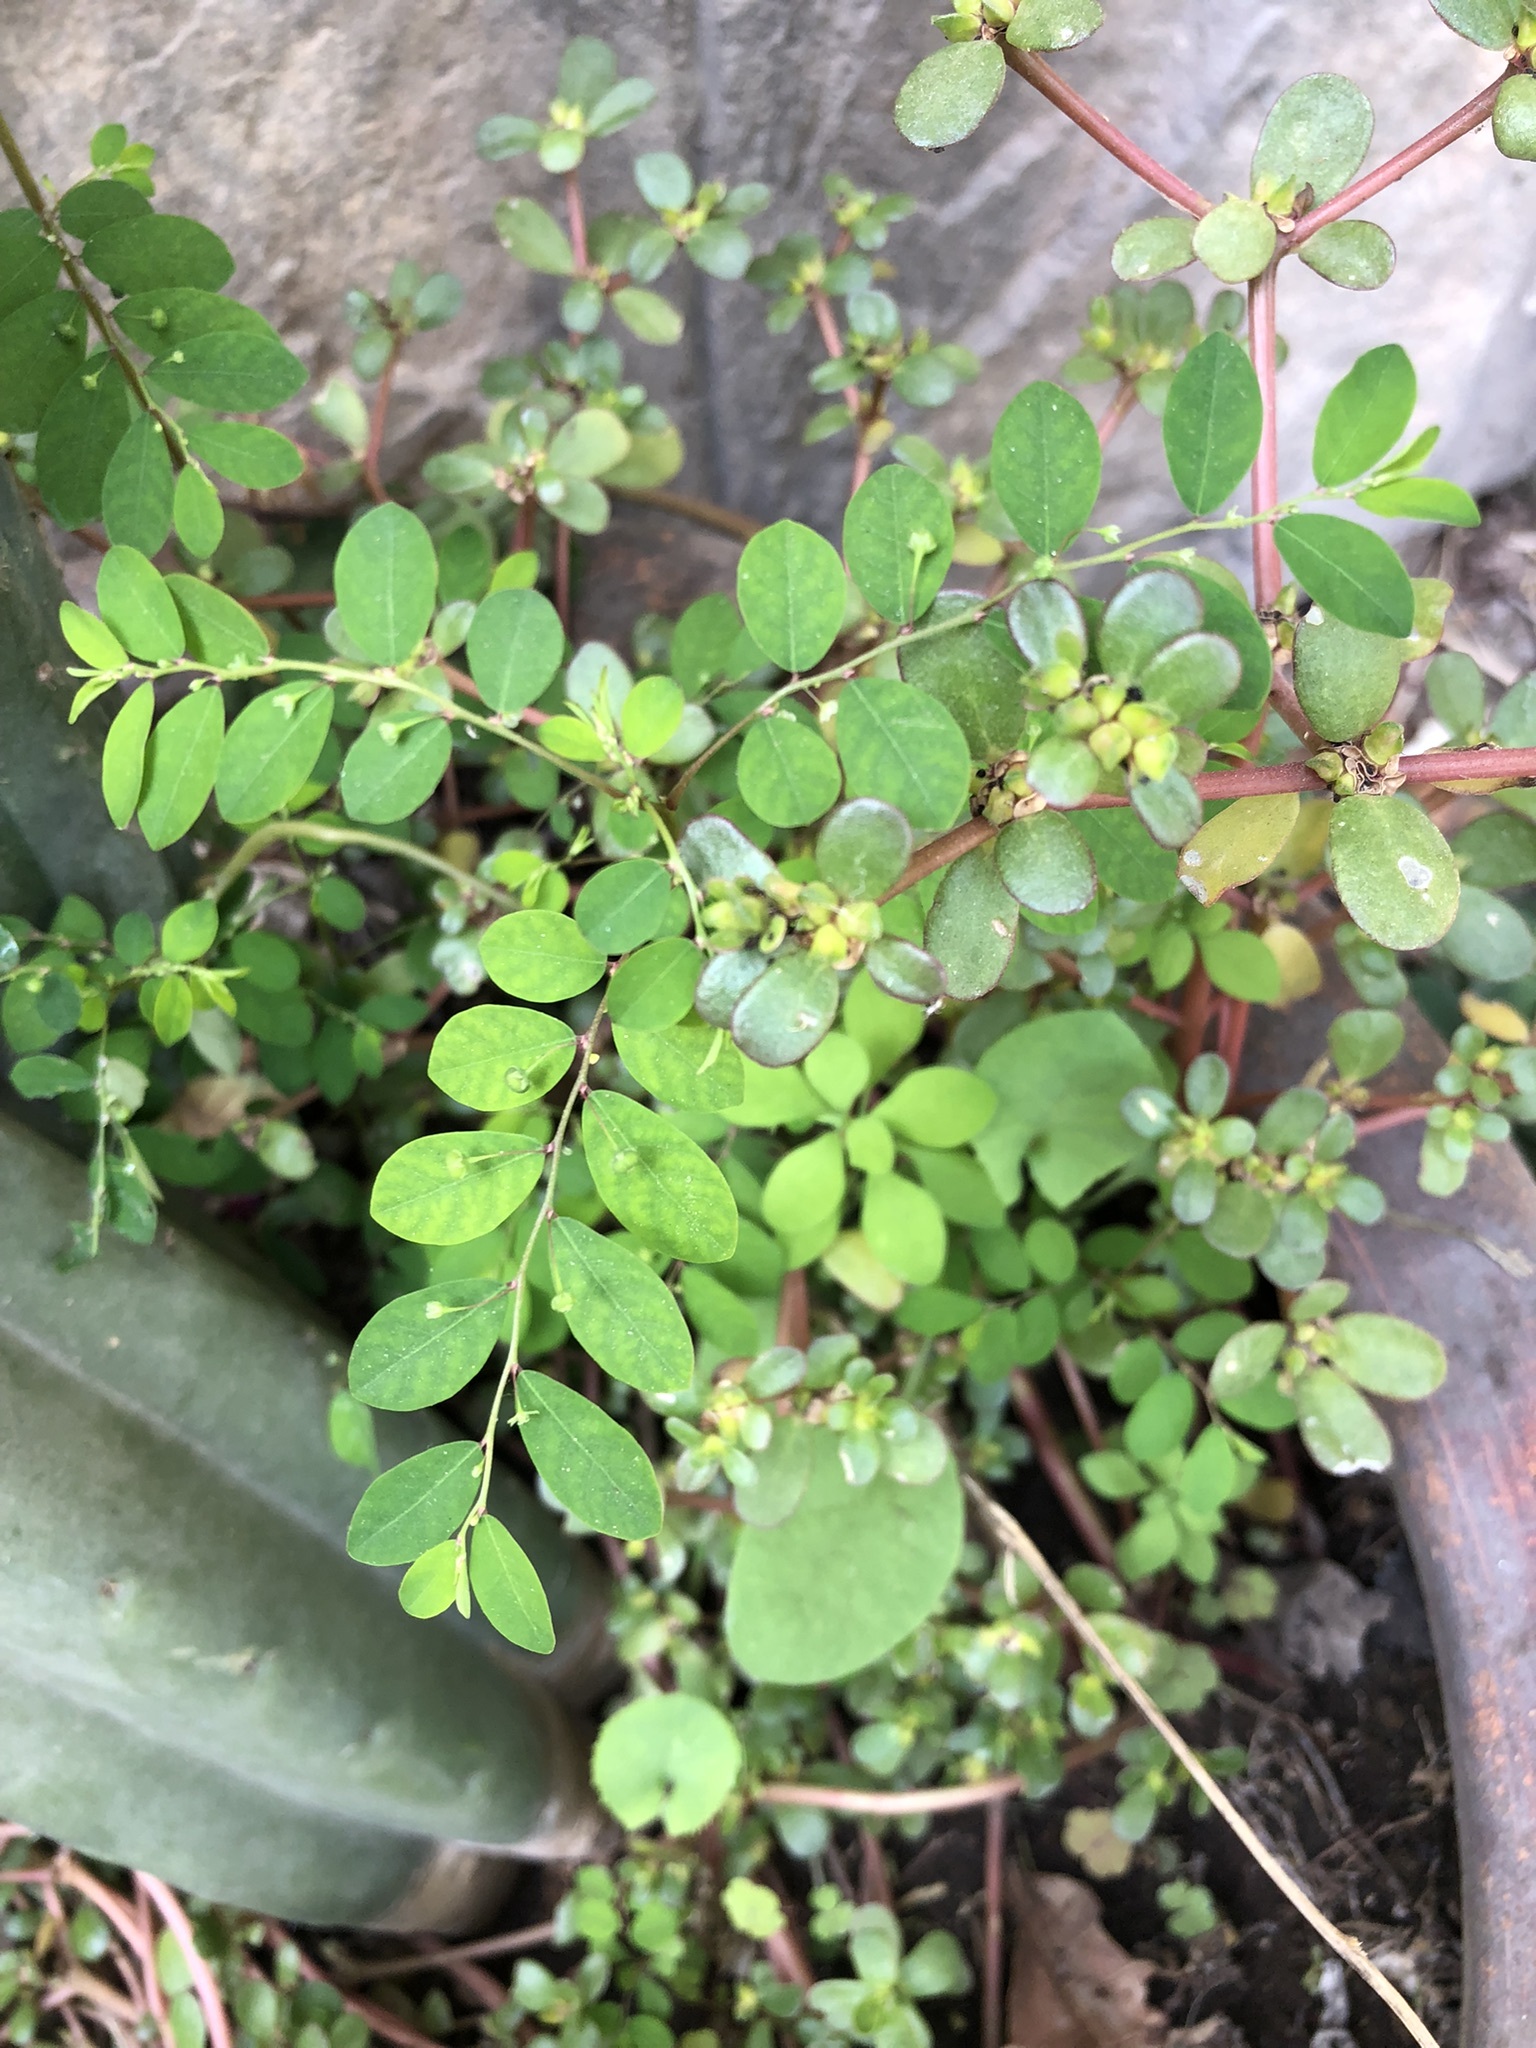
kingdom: Plantae
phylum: Tracheophyta
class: Magnoliopsida
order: Malpighiales
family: Phyllanthaceae
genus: Phyllanthus
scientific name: Phyllanthus tenellus
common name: Mascarene island leaf-flower
